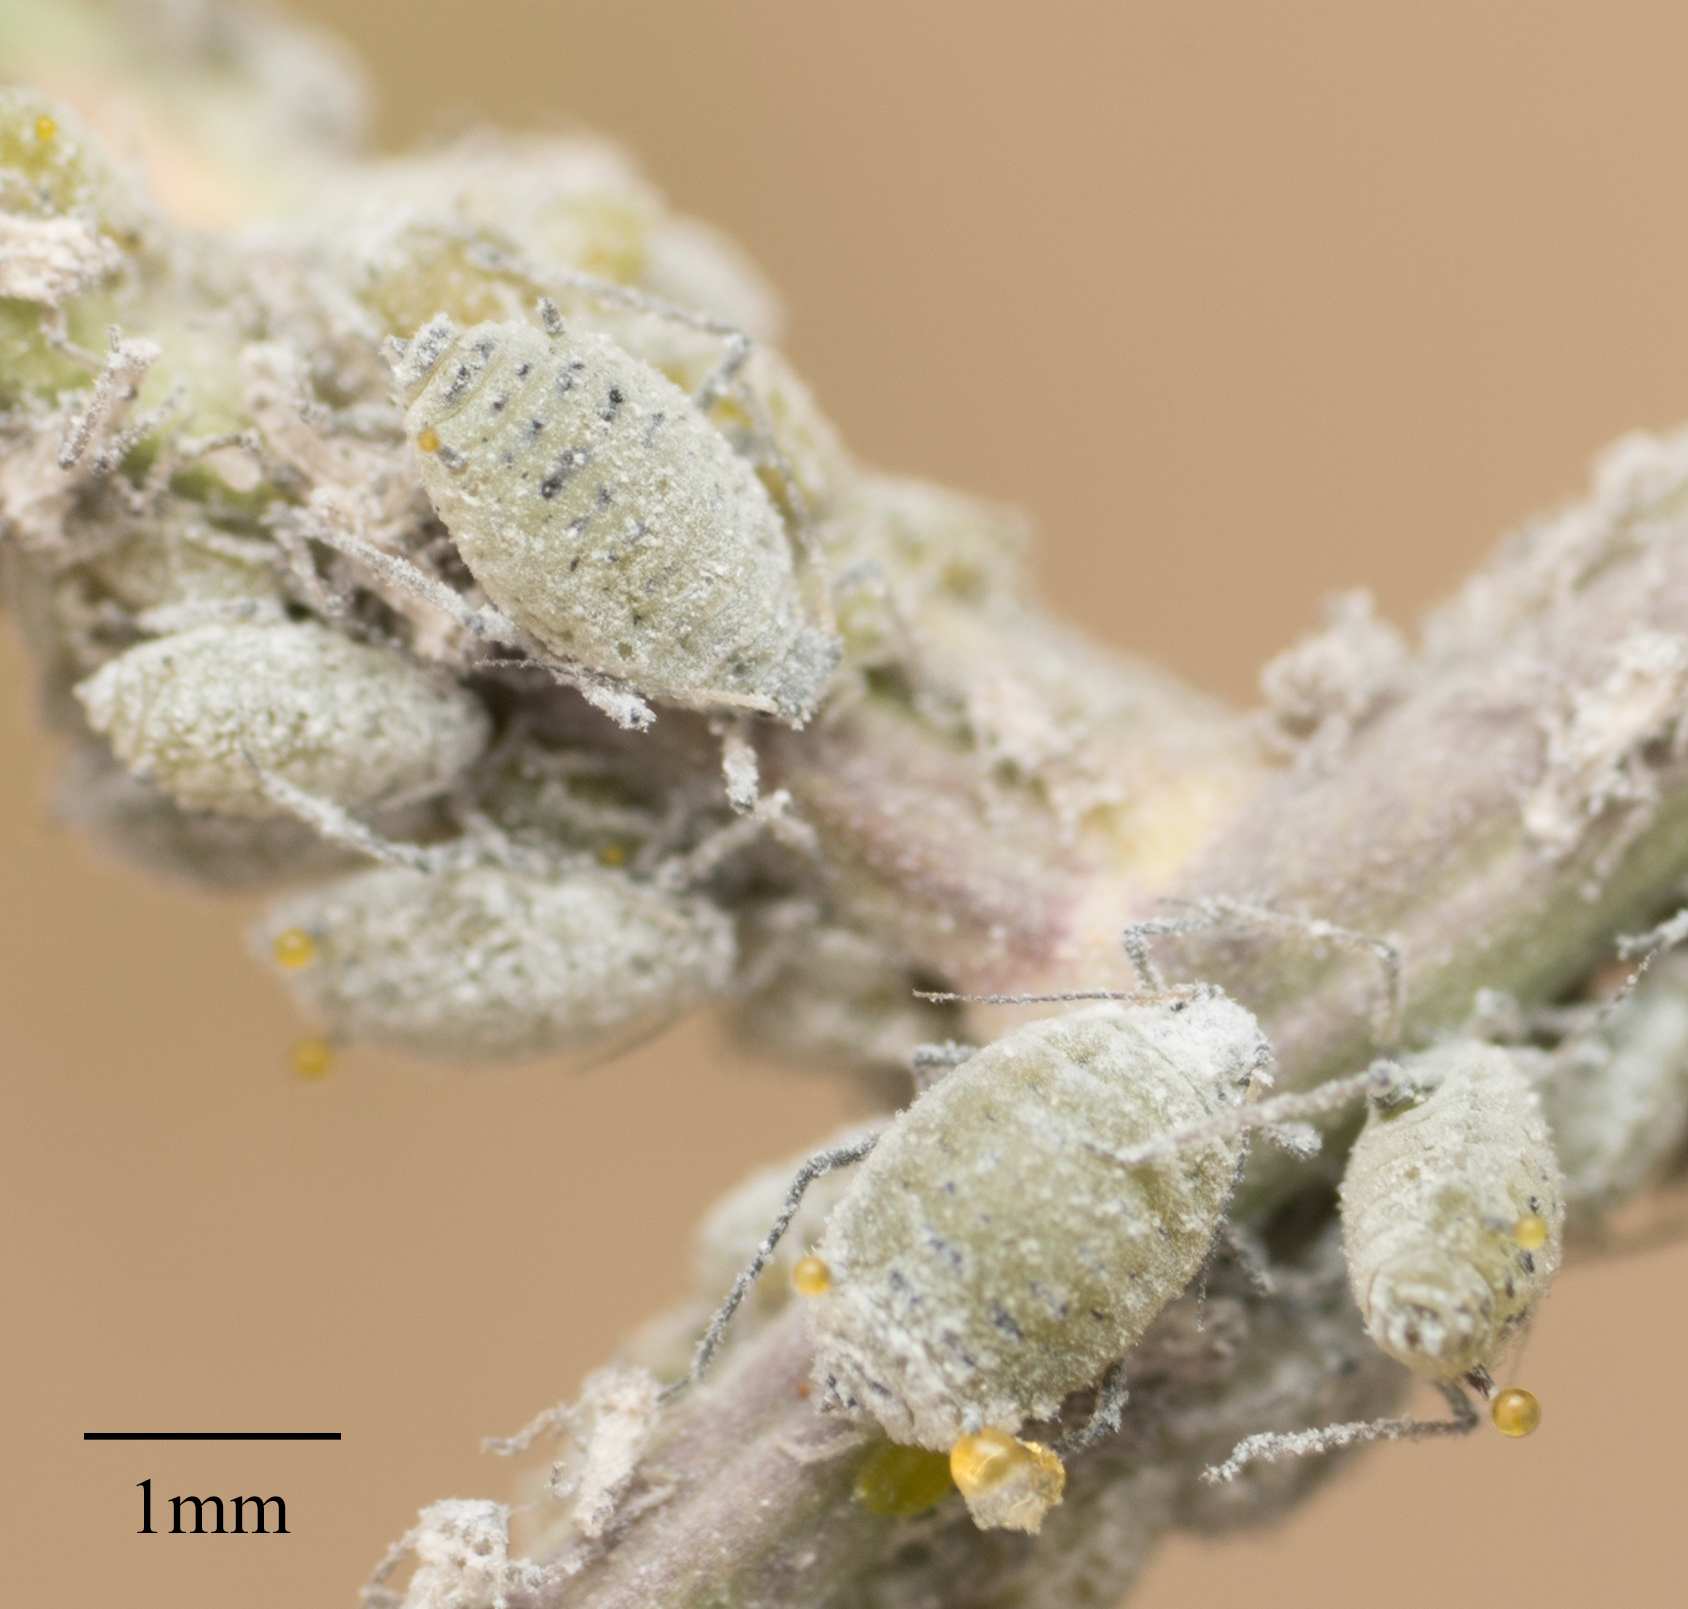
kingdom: Animalia
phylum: Arthropoda
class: Insecta
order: Hemiptera
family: Aphididae
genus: Brevicoryne
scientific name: Brevicoryne brassicae
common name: Cabbage aphid
